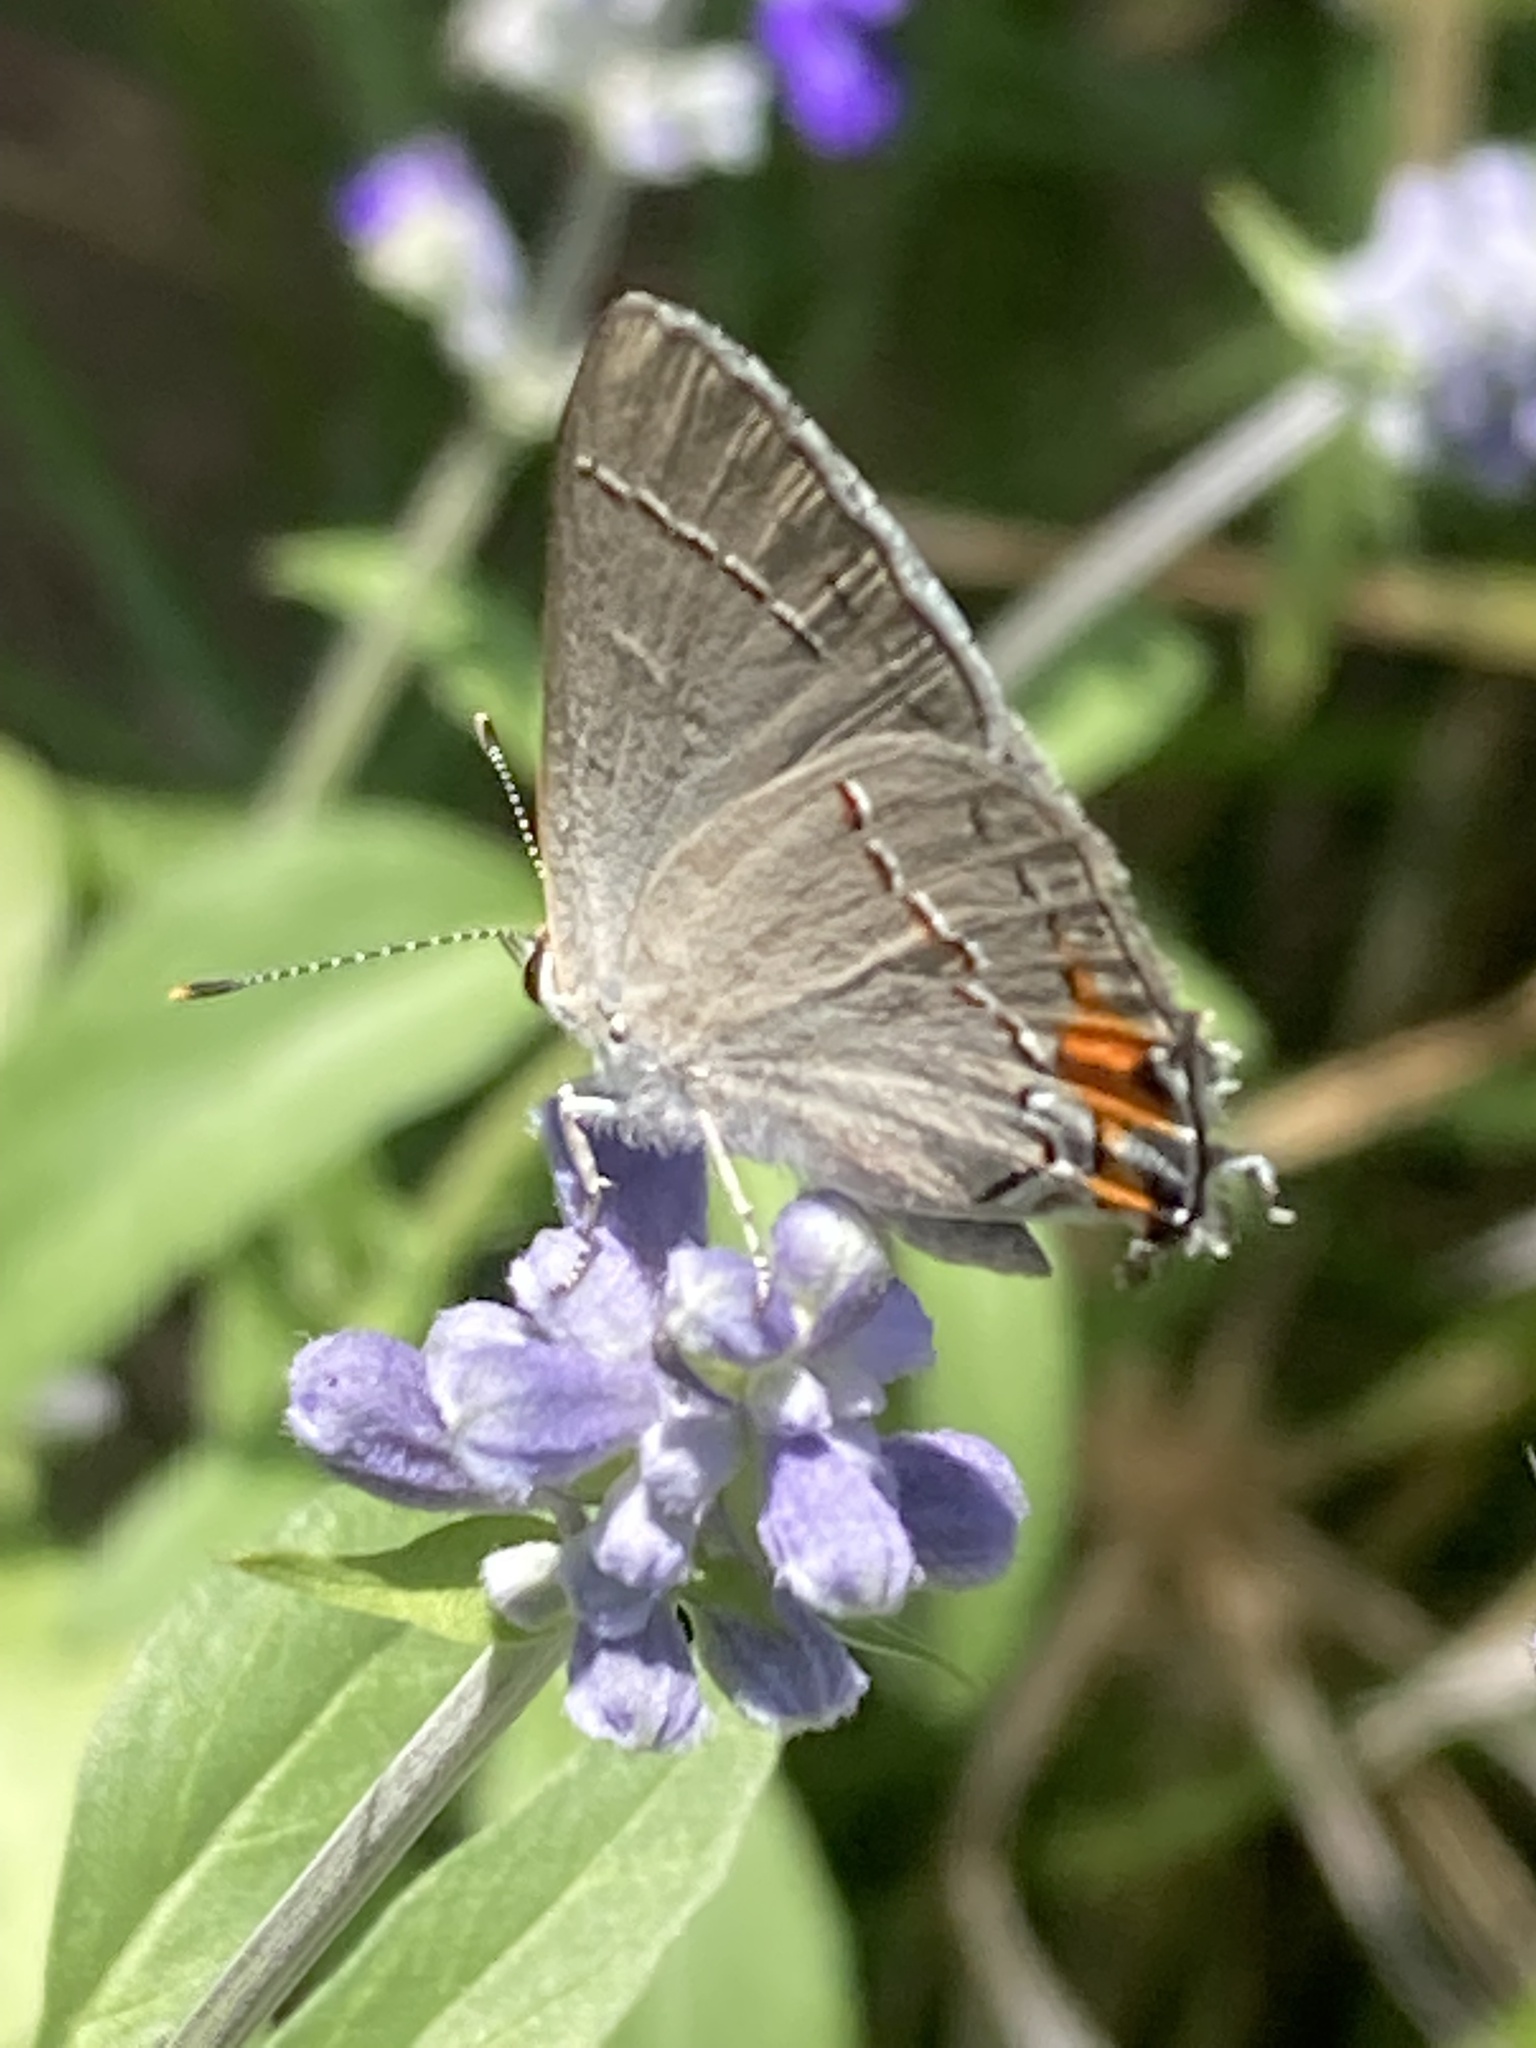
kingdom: Animalia
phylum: Arthropoda
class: Insecta
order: Lepidoptera
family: Lycaenidae
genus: Strymon
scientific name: Strymon melinus
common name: Gray hairstreak
